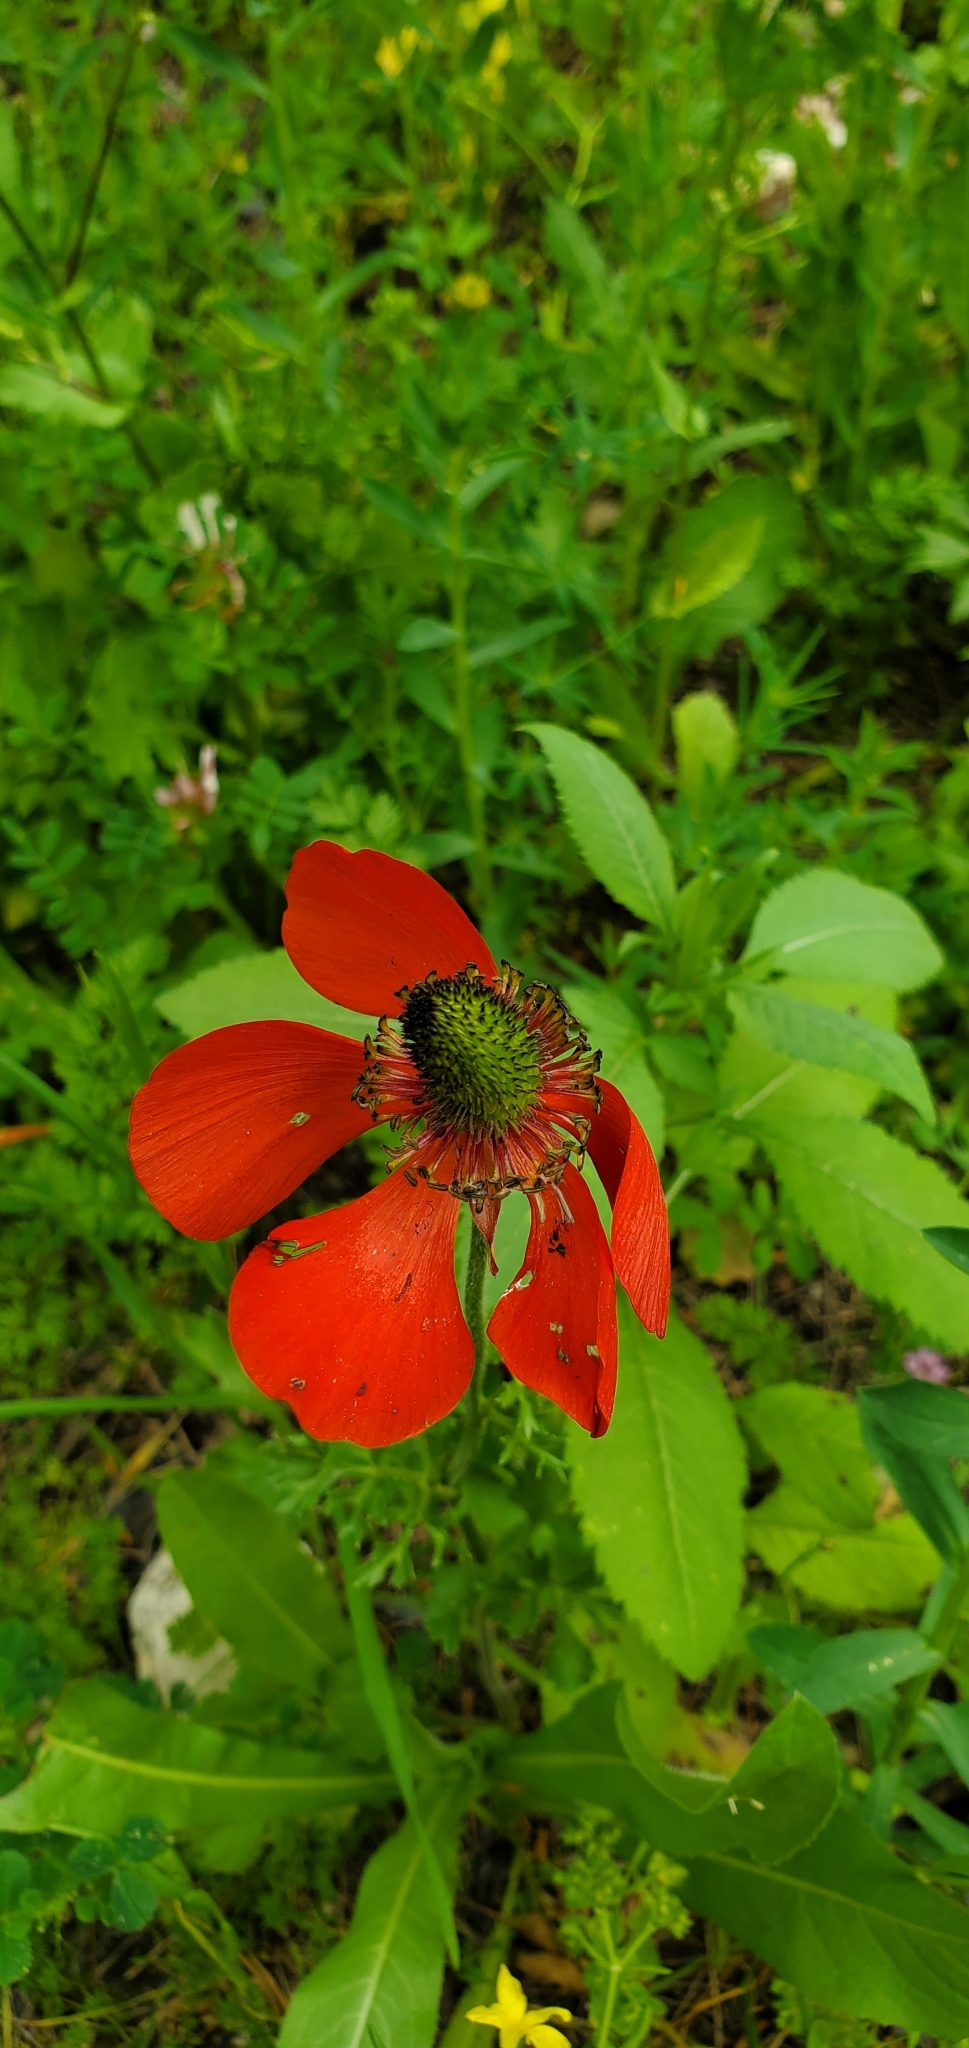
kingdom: Plantae
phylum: Tracheophyta
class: Magnoliopsida
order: Ranunculales
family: Ranunculaceae
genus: Ranunculus
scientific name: Ranunculus asiaticus
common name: Persian buttercup
